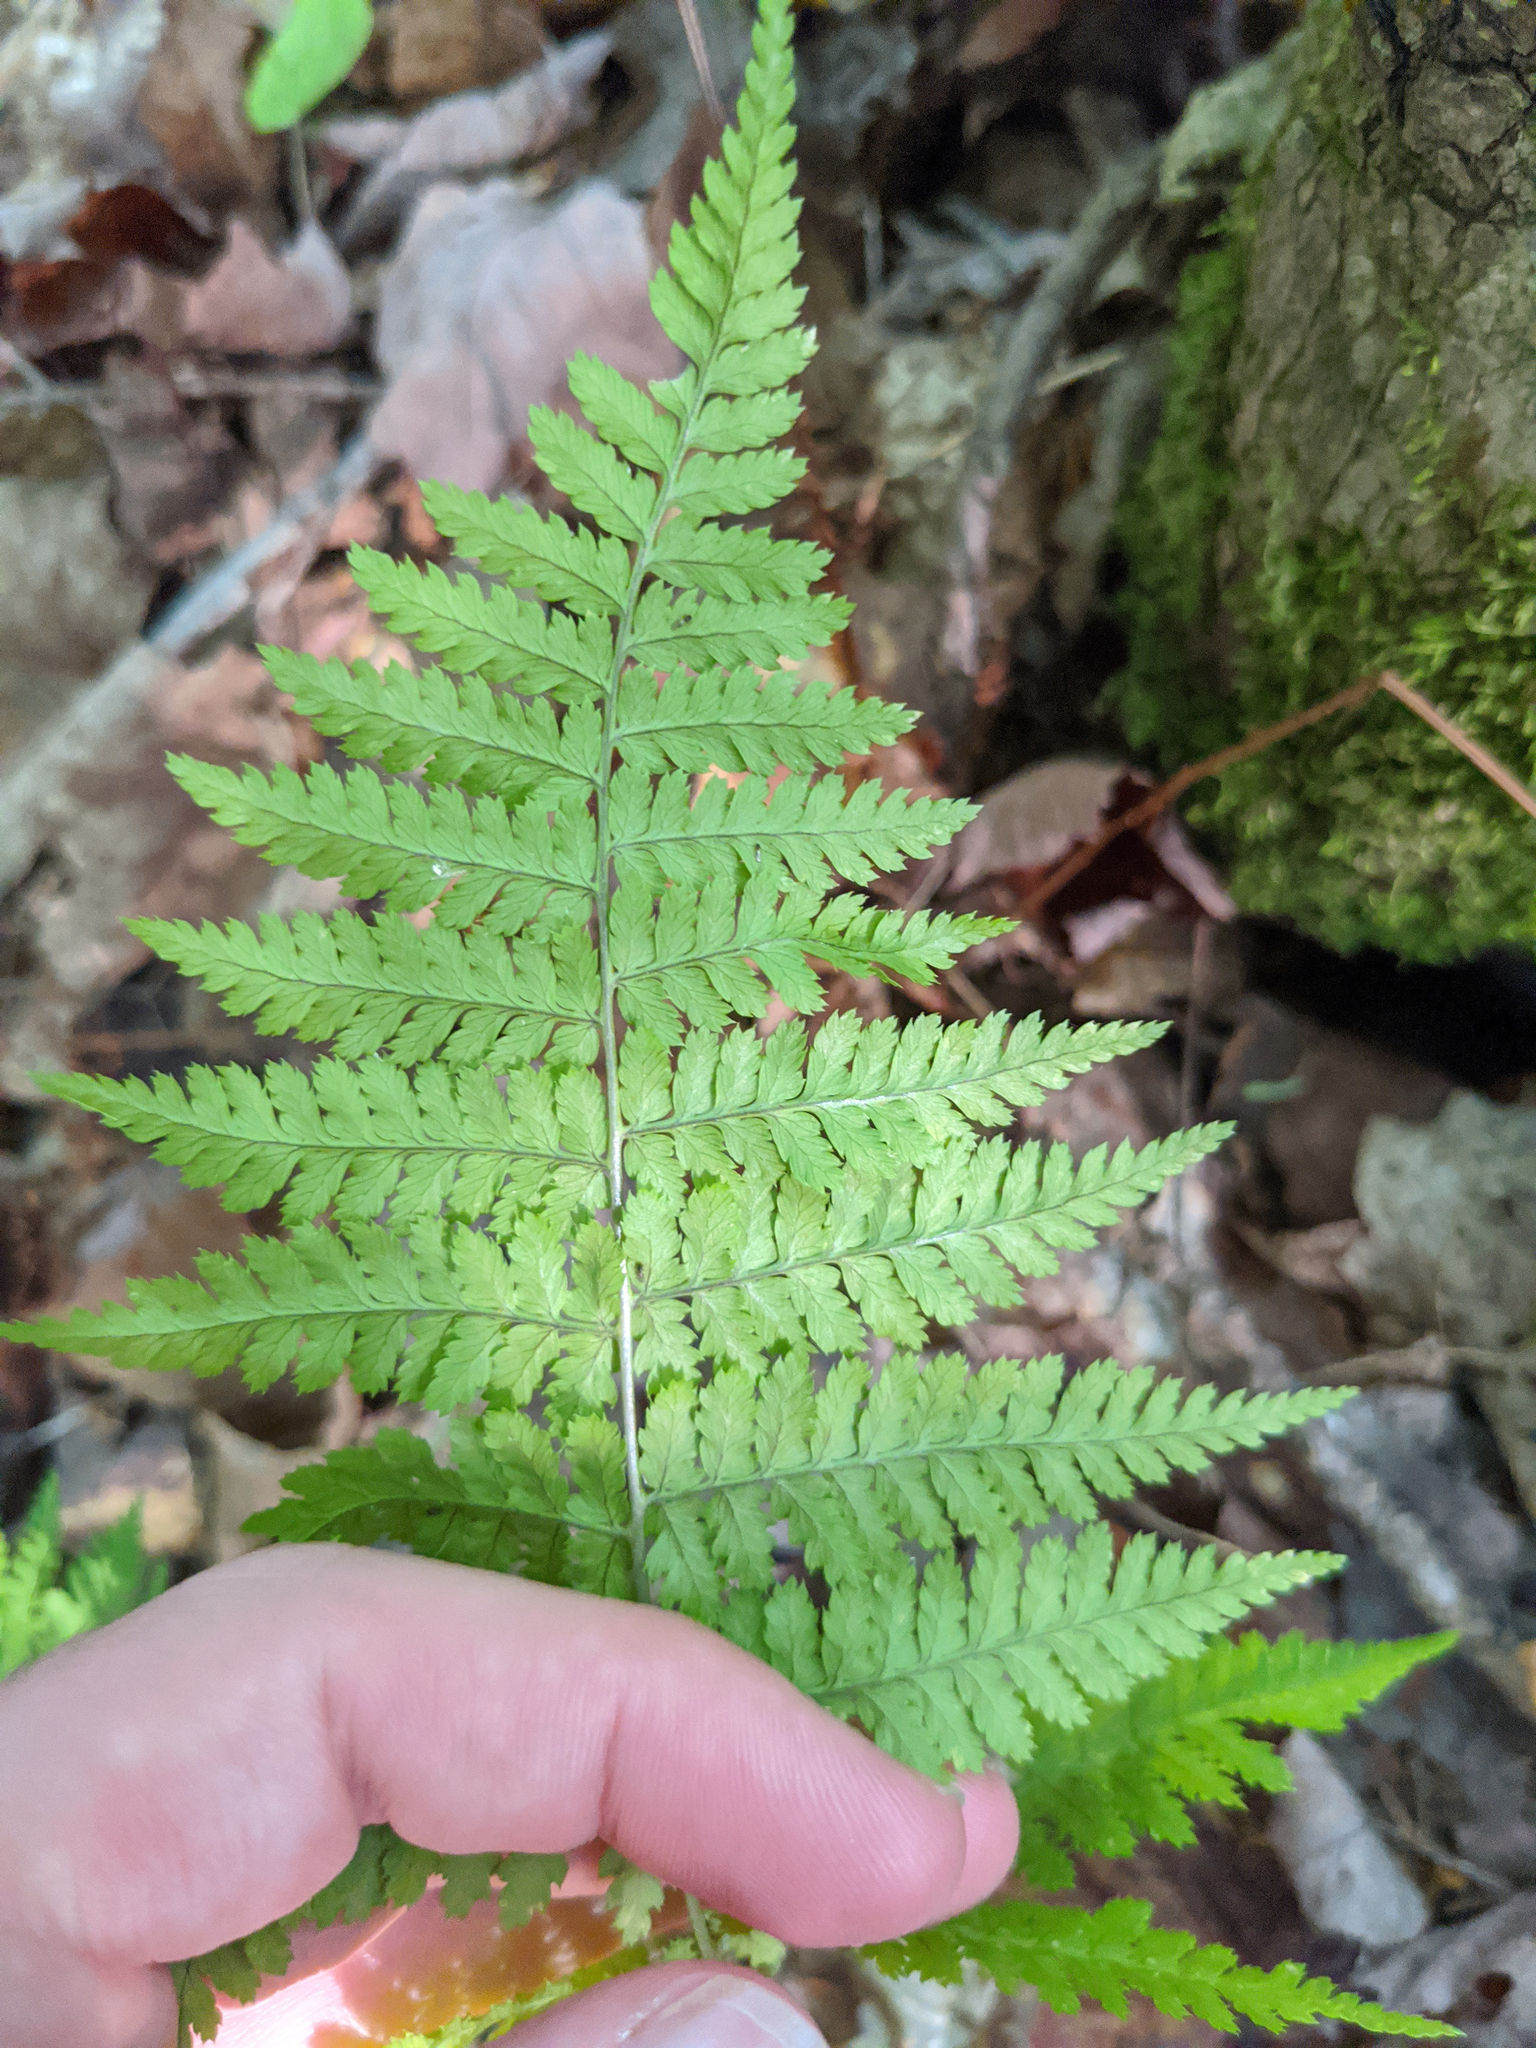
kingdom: Plantae
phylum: Tracheophyta
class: Polypodiopsida
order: Polypodiales
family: Dryopteridaceae
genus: Dryopteris
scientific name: Dryopteris intermedia
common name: Evergreen wood fern
